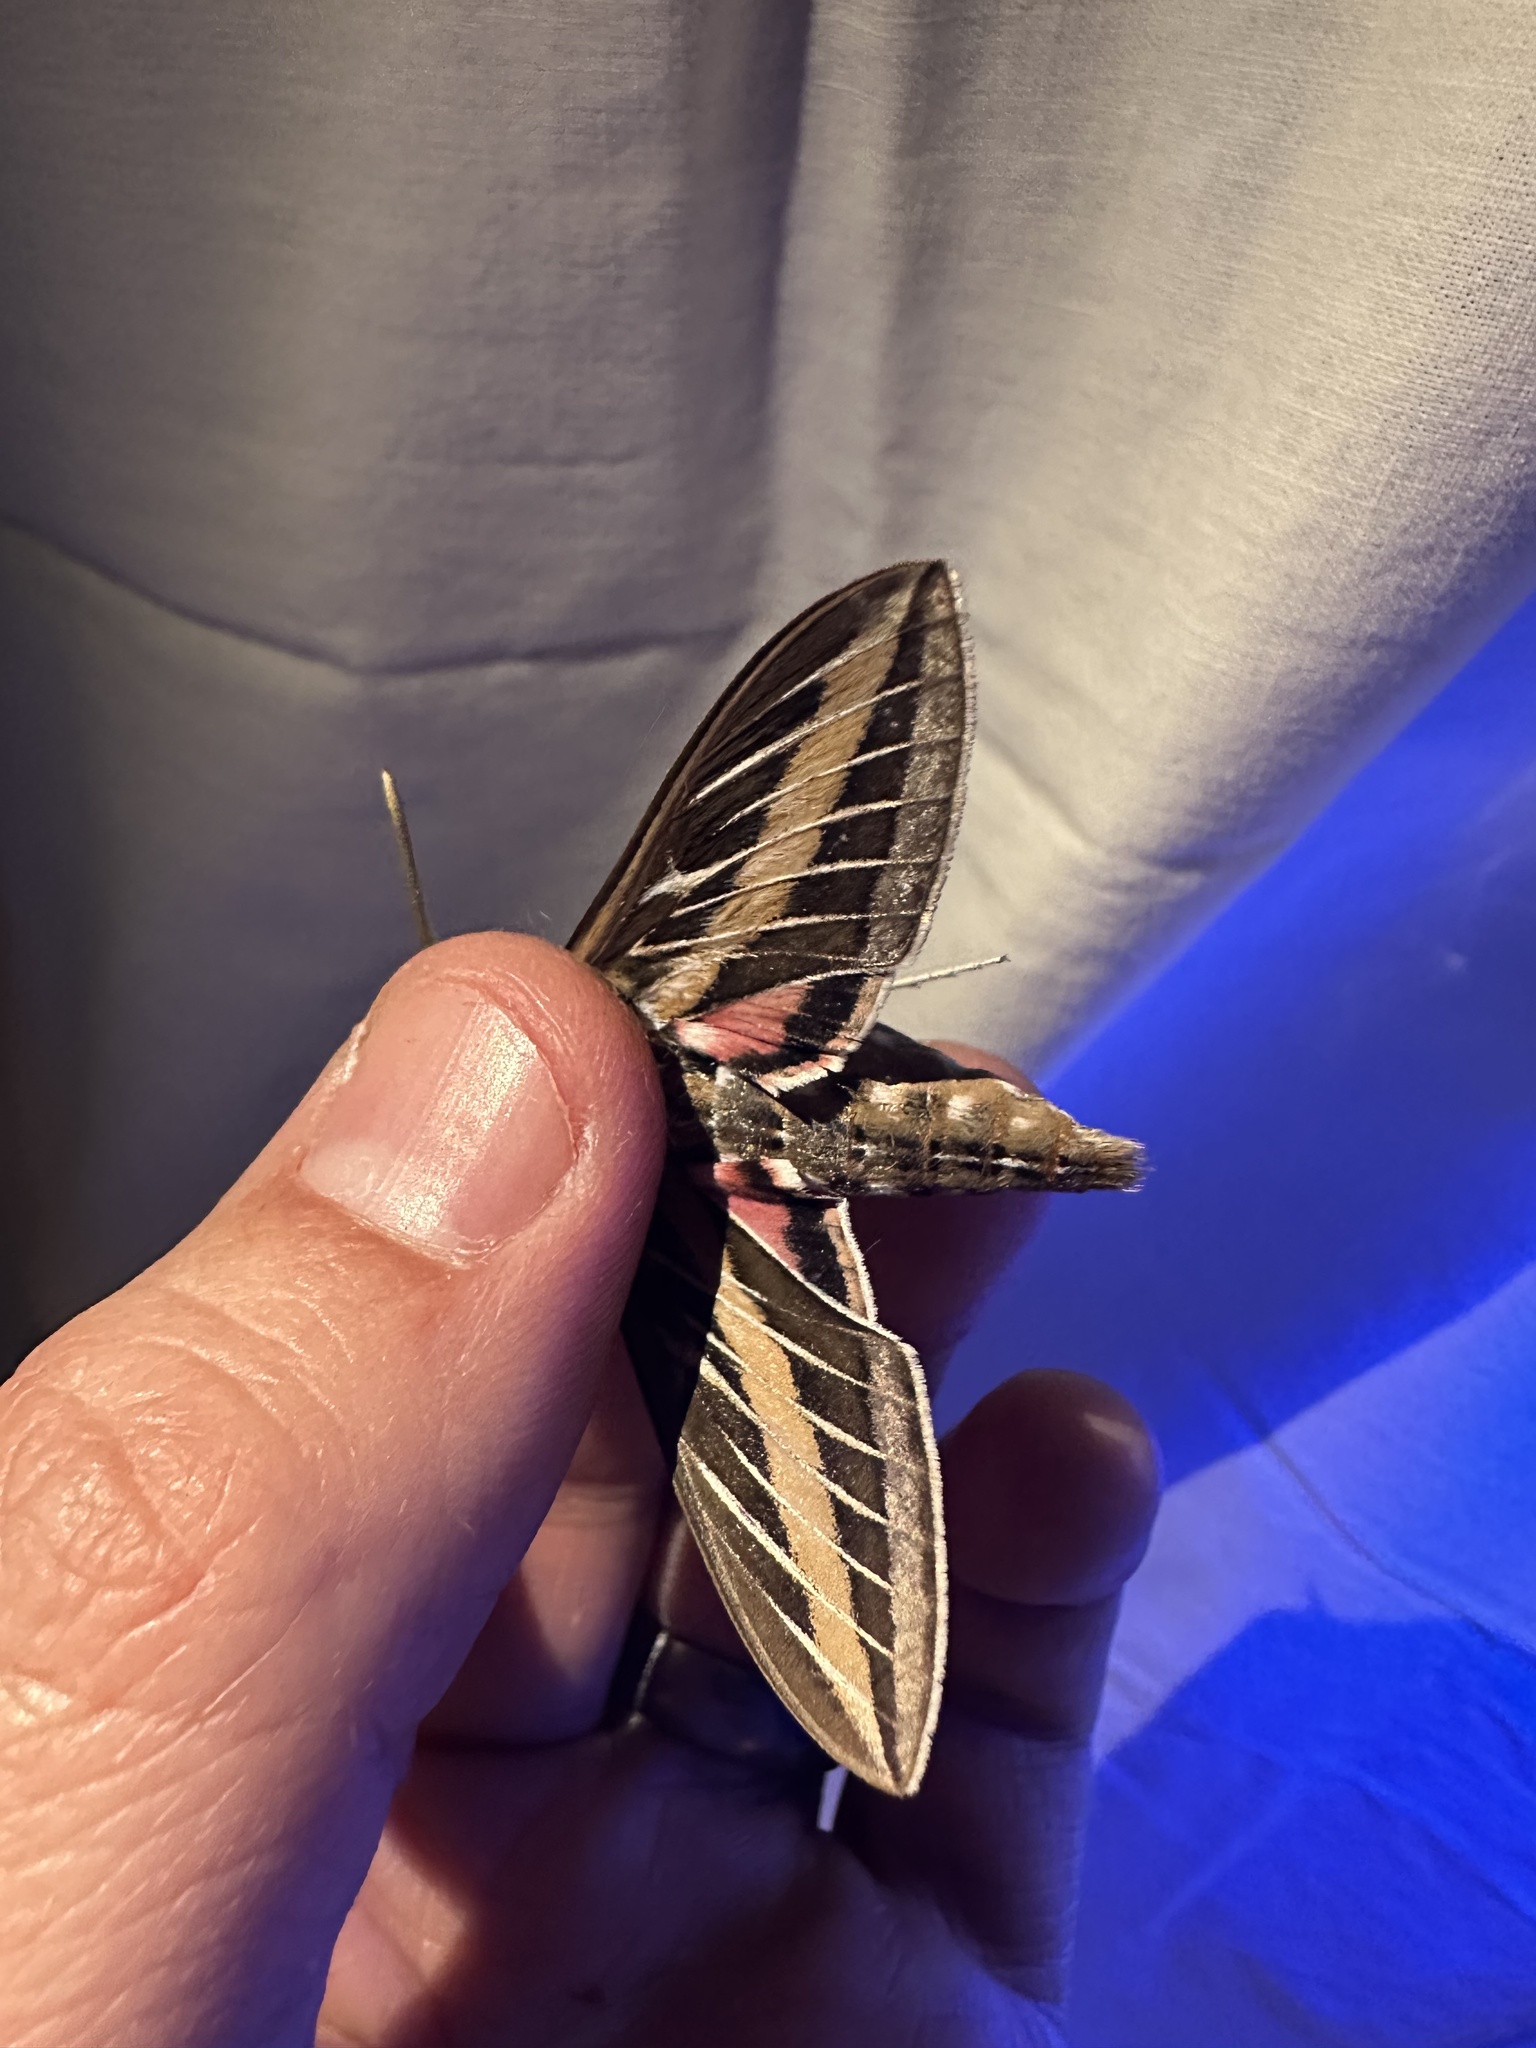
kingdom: Animalia
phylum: Arthropoda
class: Insecta
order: Lepidoptera
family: Sphingidae
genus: Hyles
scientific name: Hyles lineata
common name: White-lined sphinx
